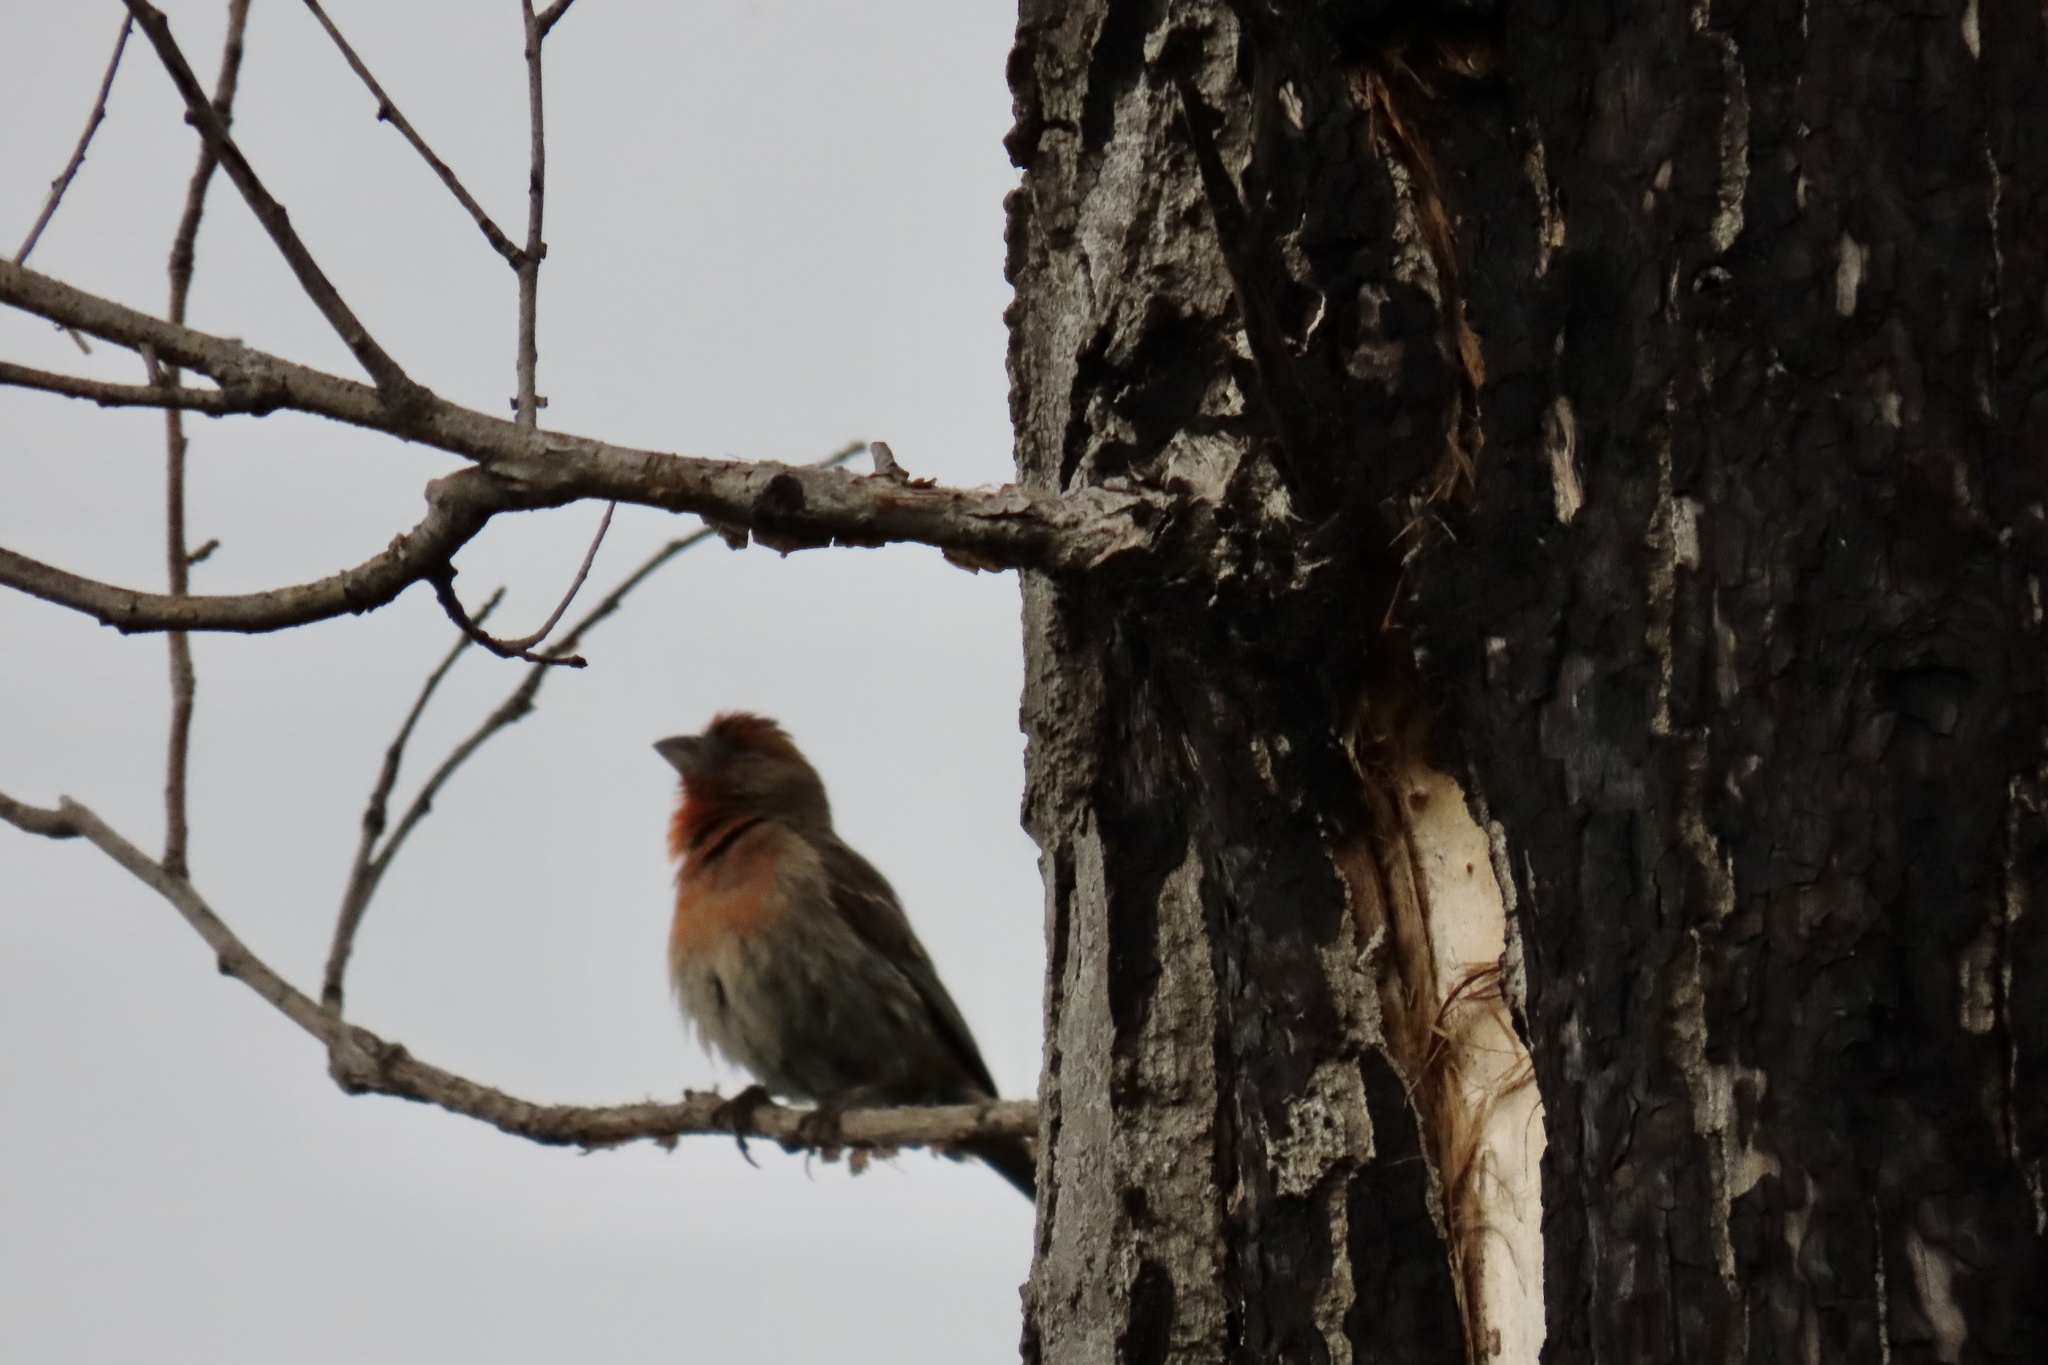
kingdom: Animalia
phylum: Chordata
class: Aves
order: Passeriformes
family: Fringillidae
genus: Haemorhous
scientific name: Haemorhous mexicanus
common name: House finch
